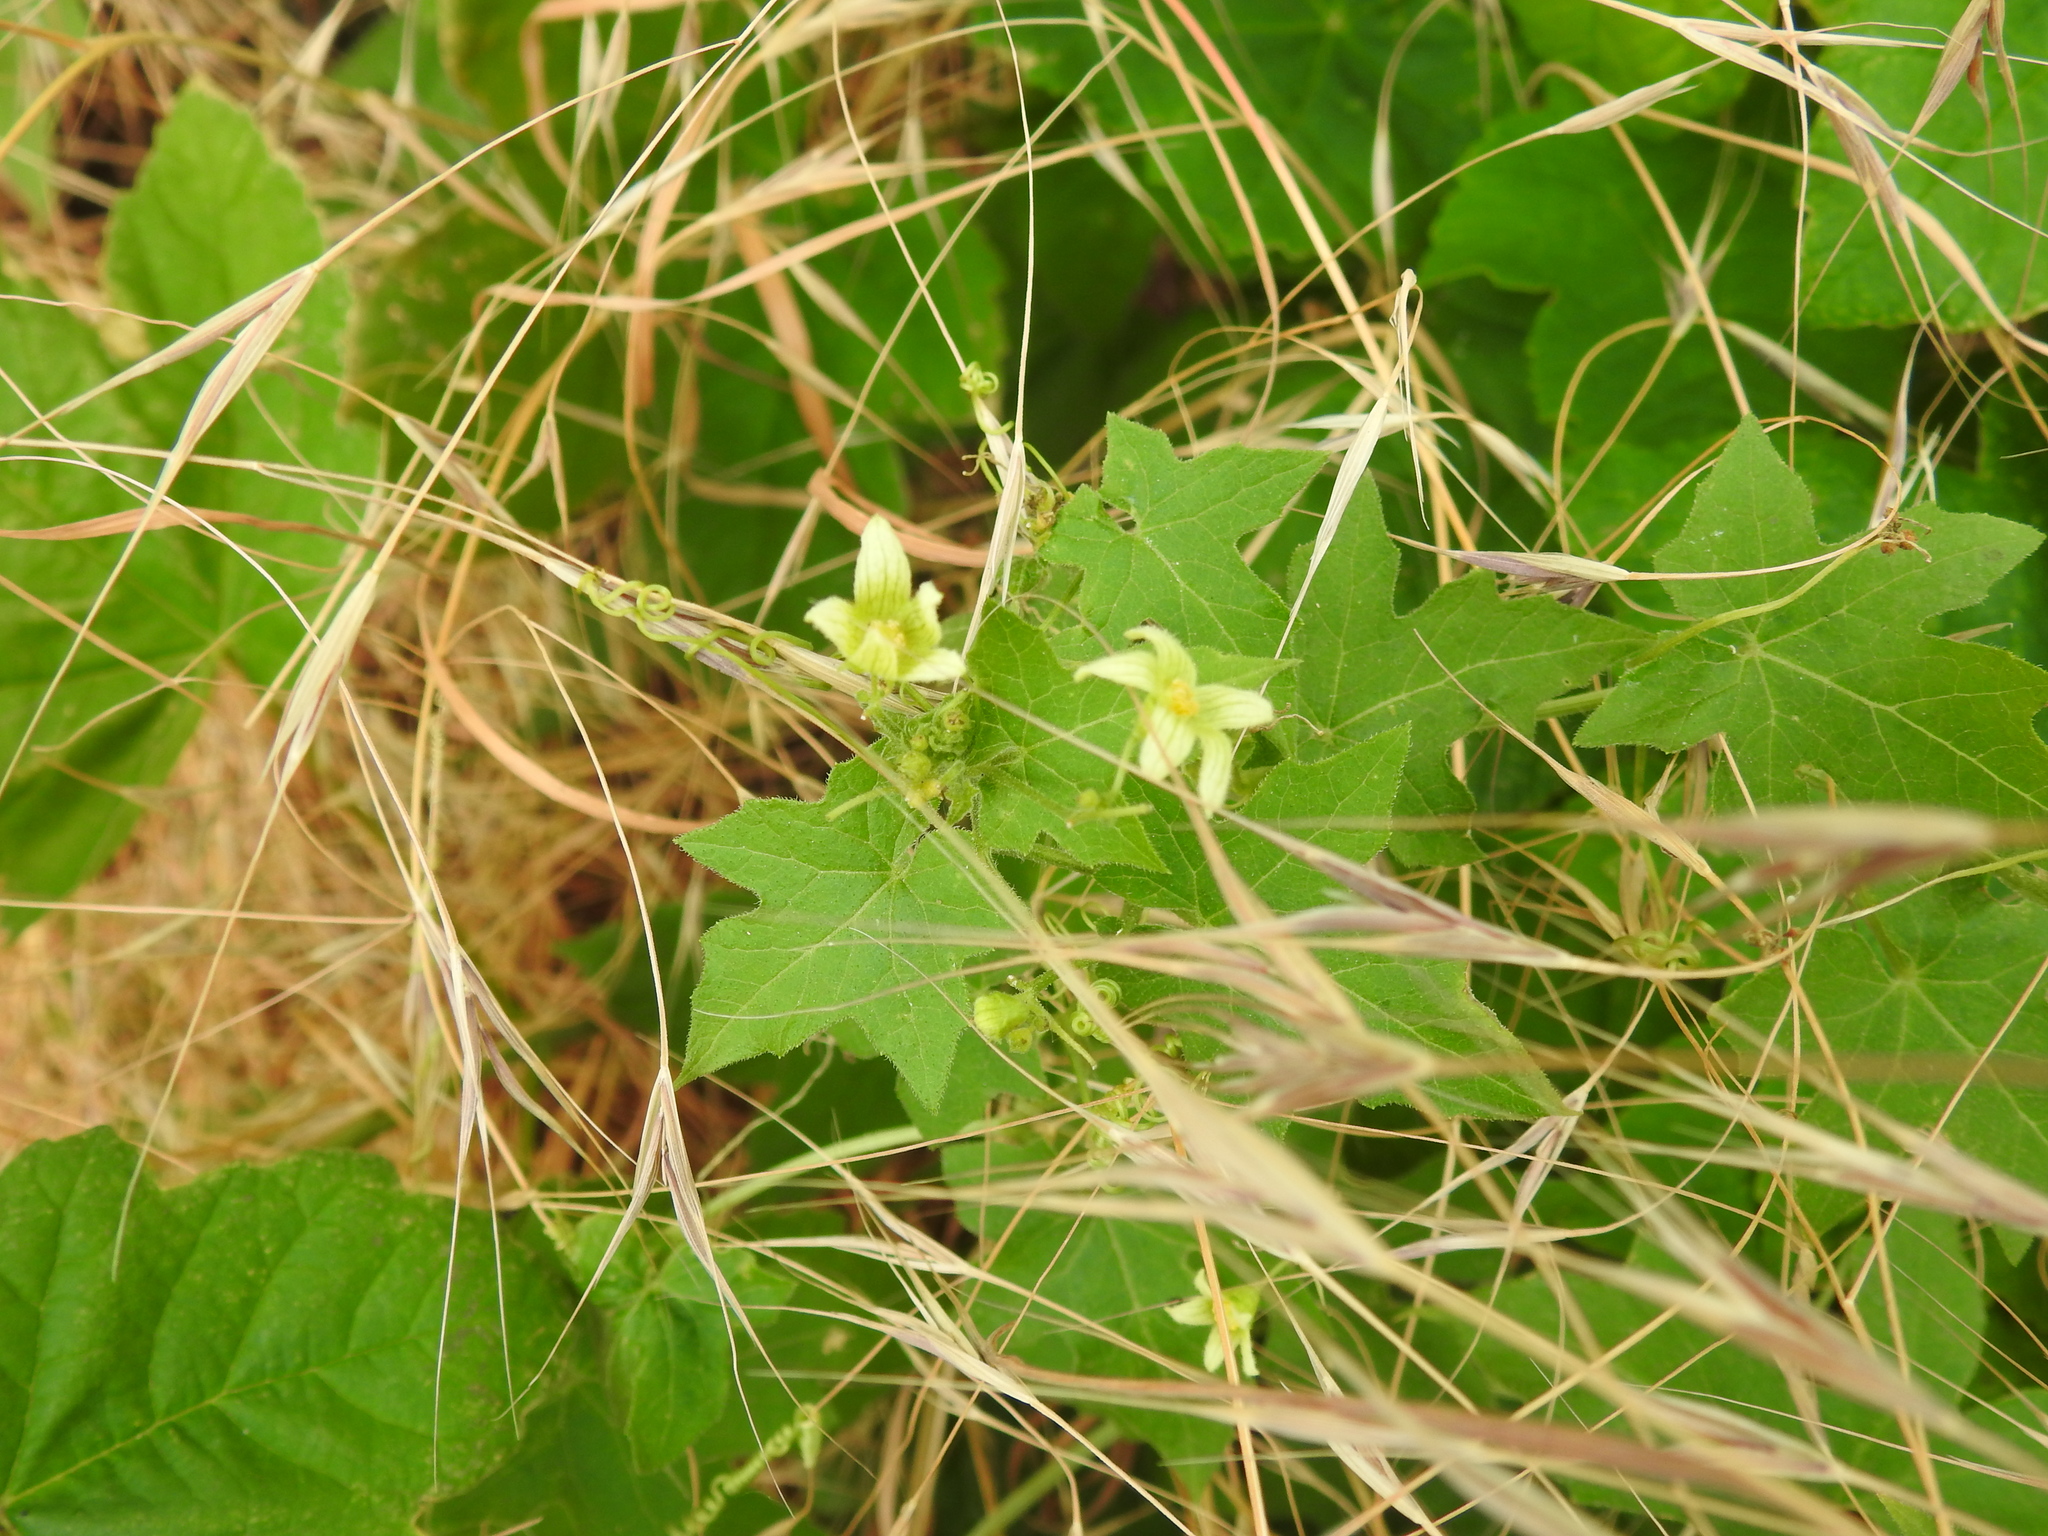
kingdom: Plantae
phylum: Tracheophyta
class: Magnoliopsida
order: Cucurbitales
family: Cucurbitaceae
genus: Bryonia
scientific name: Bryonia cretica
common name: Cretan bryony
